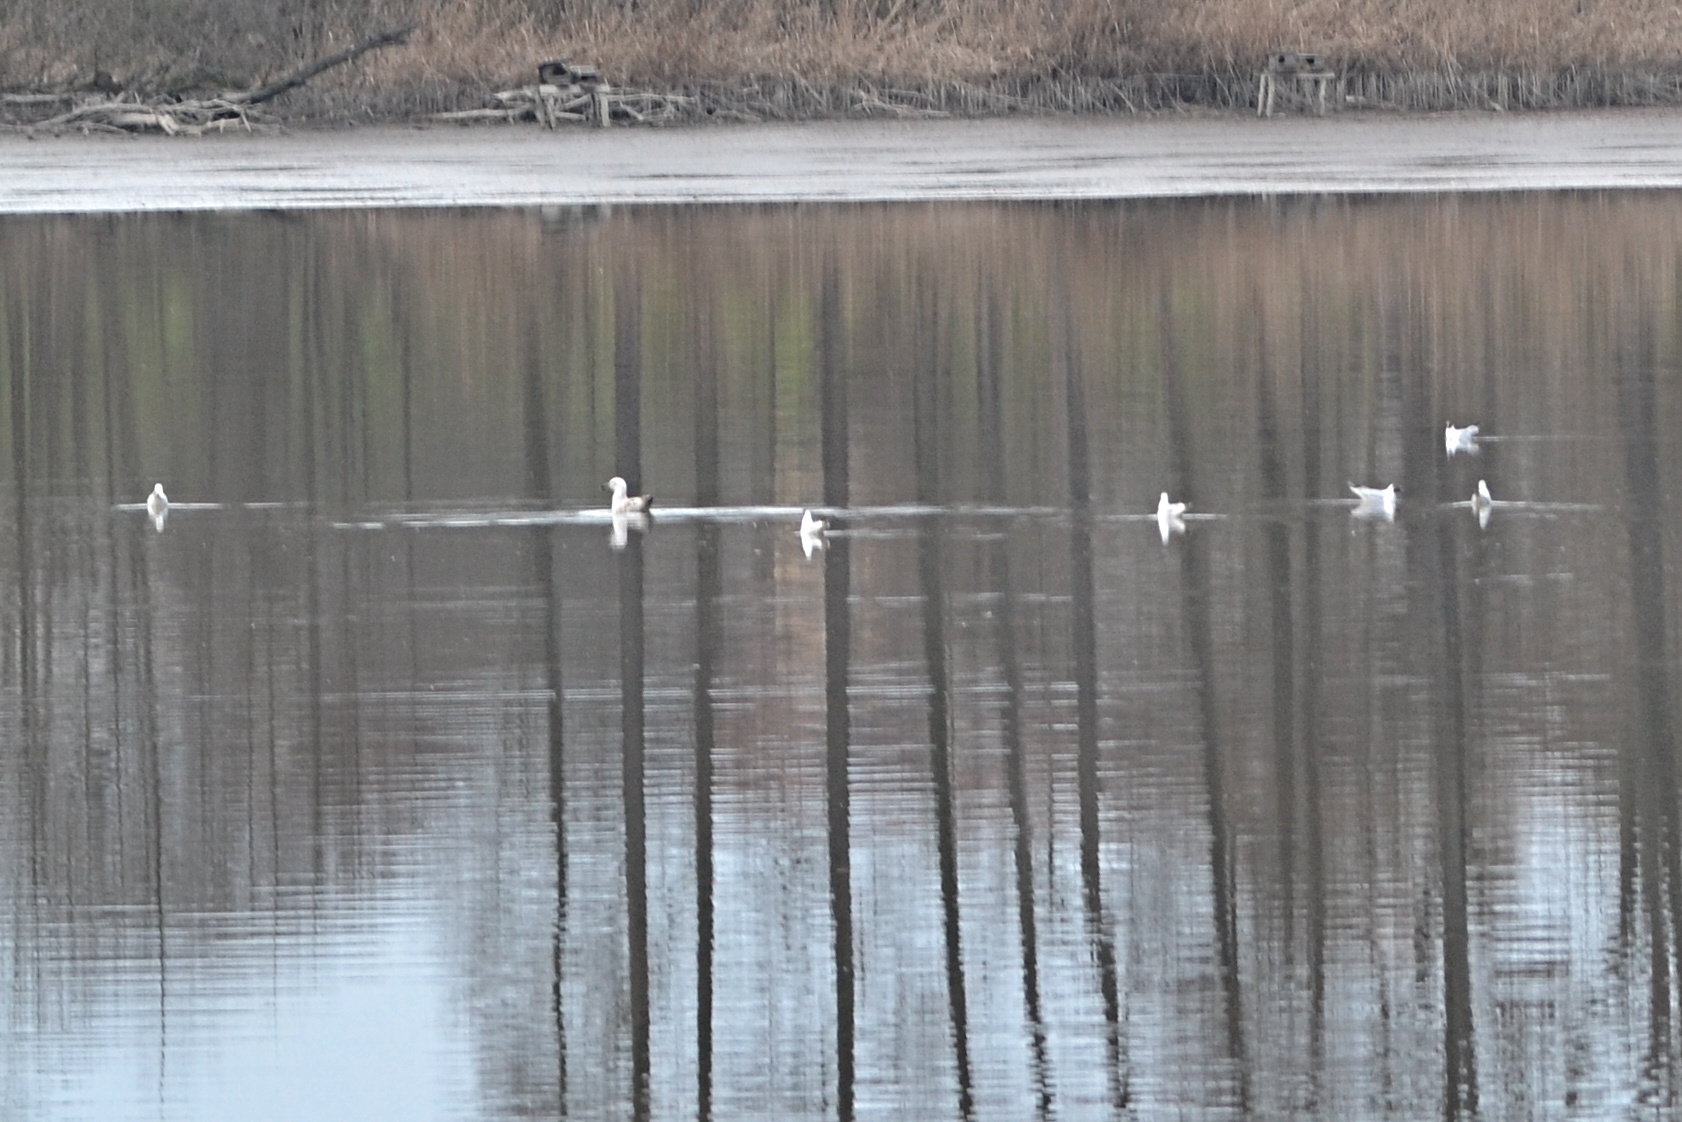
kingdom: Animalia
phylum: Chordata
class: Aves
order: Charadriiformes
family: Laridae
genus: Chroicocephalus
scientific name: Chroicocephalus ridibundus
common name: Black-headed gull
